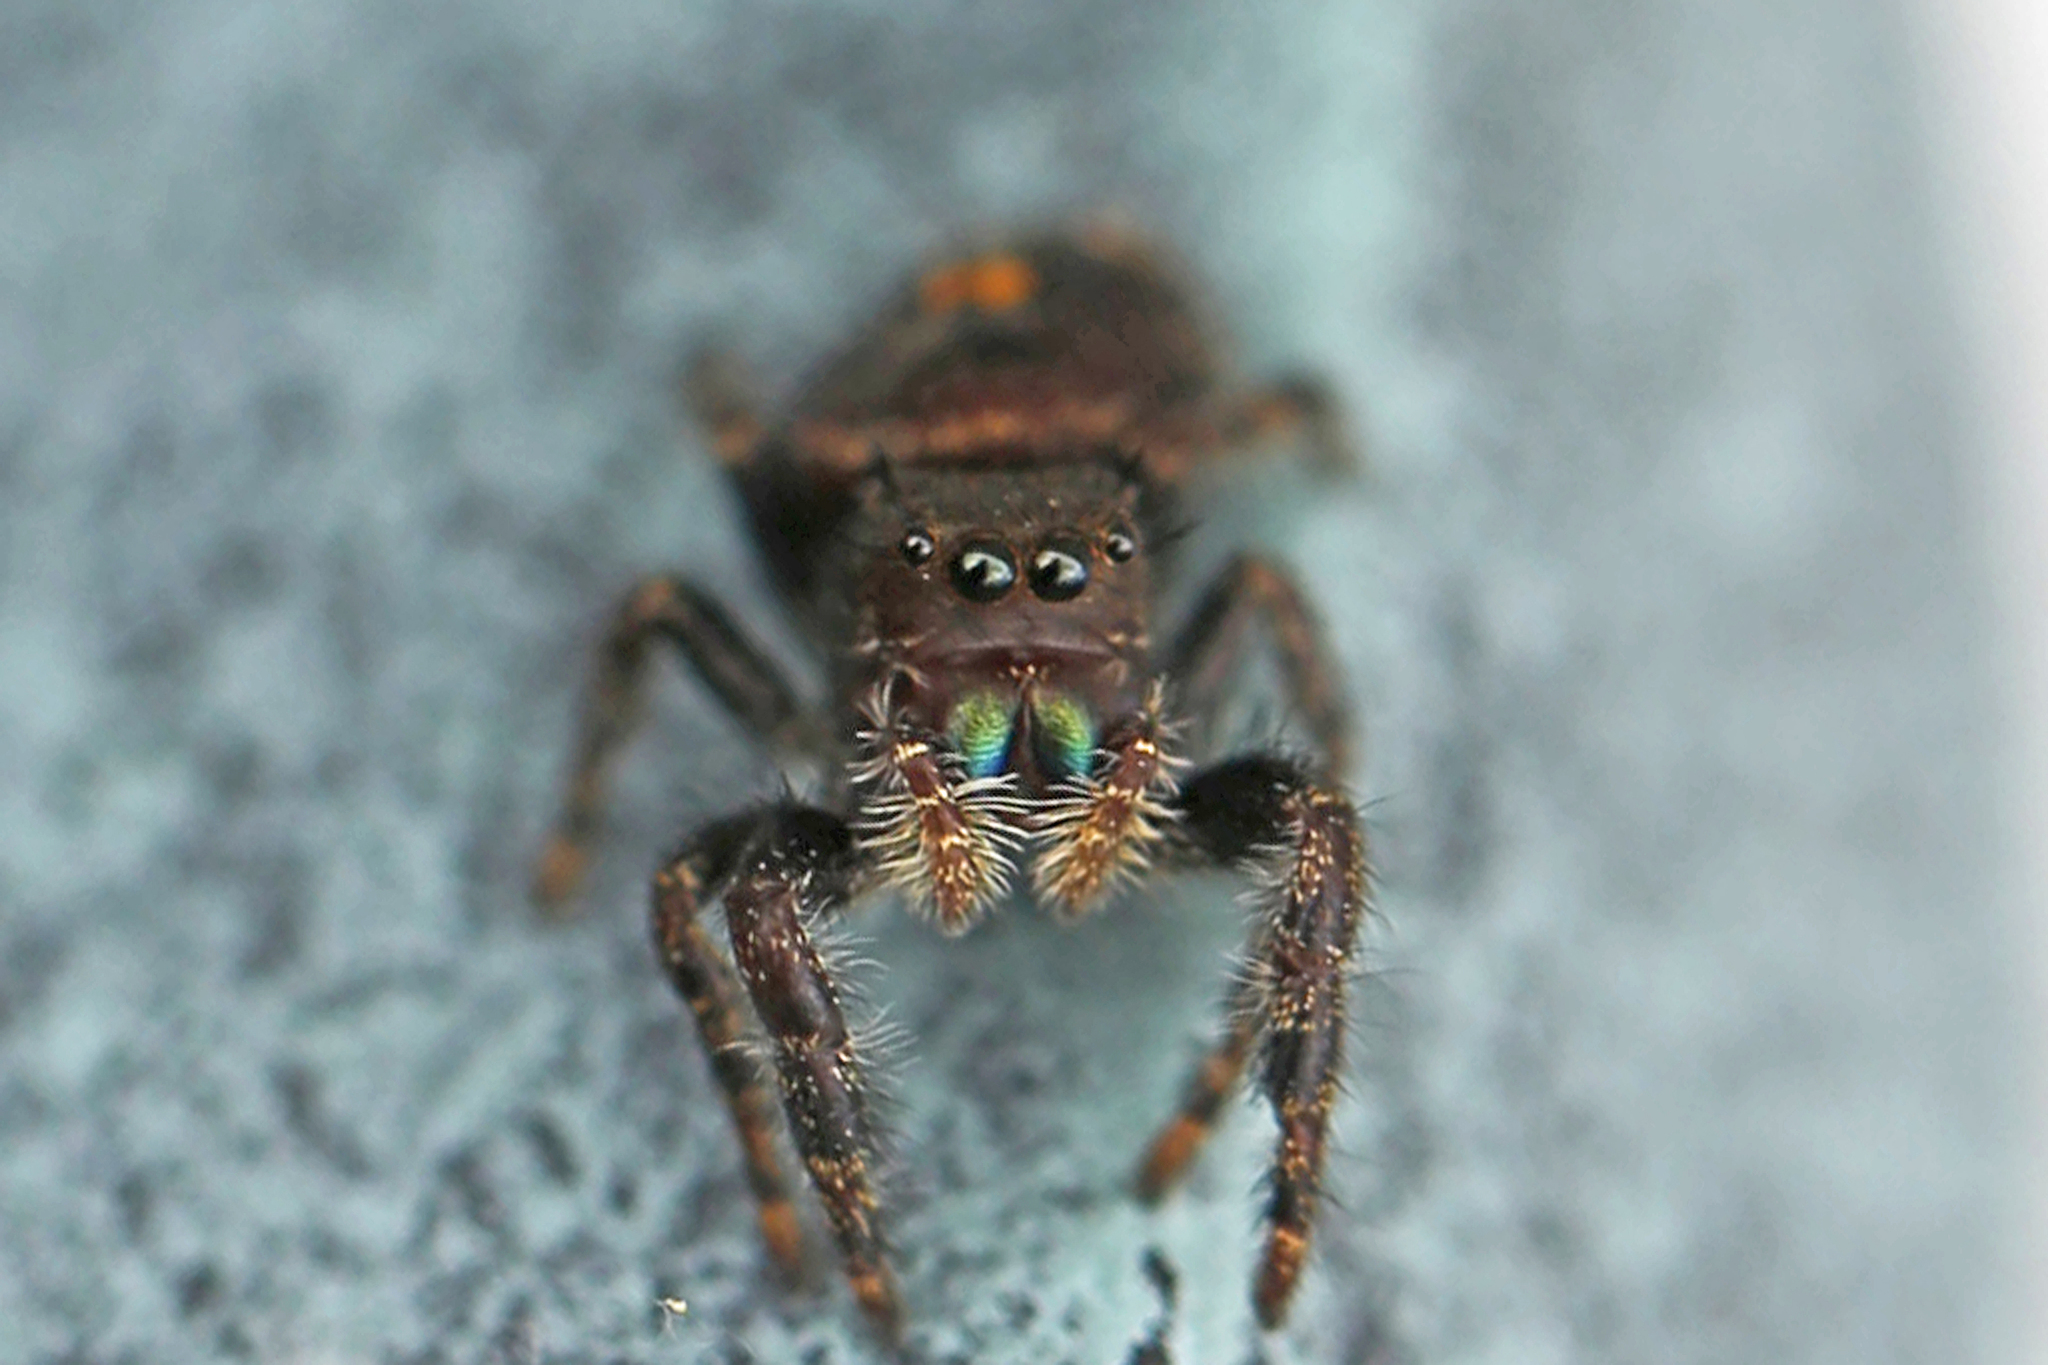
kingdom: Animalia
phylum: Arthropoda
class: Arachnida
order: Araneae
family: Salticidae
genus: Phidippus
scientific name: Phidippus audax
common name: Bold jumper
